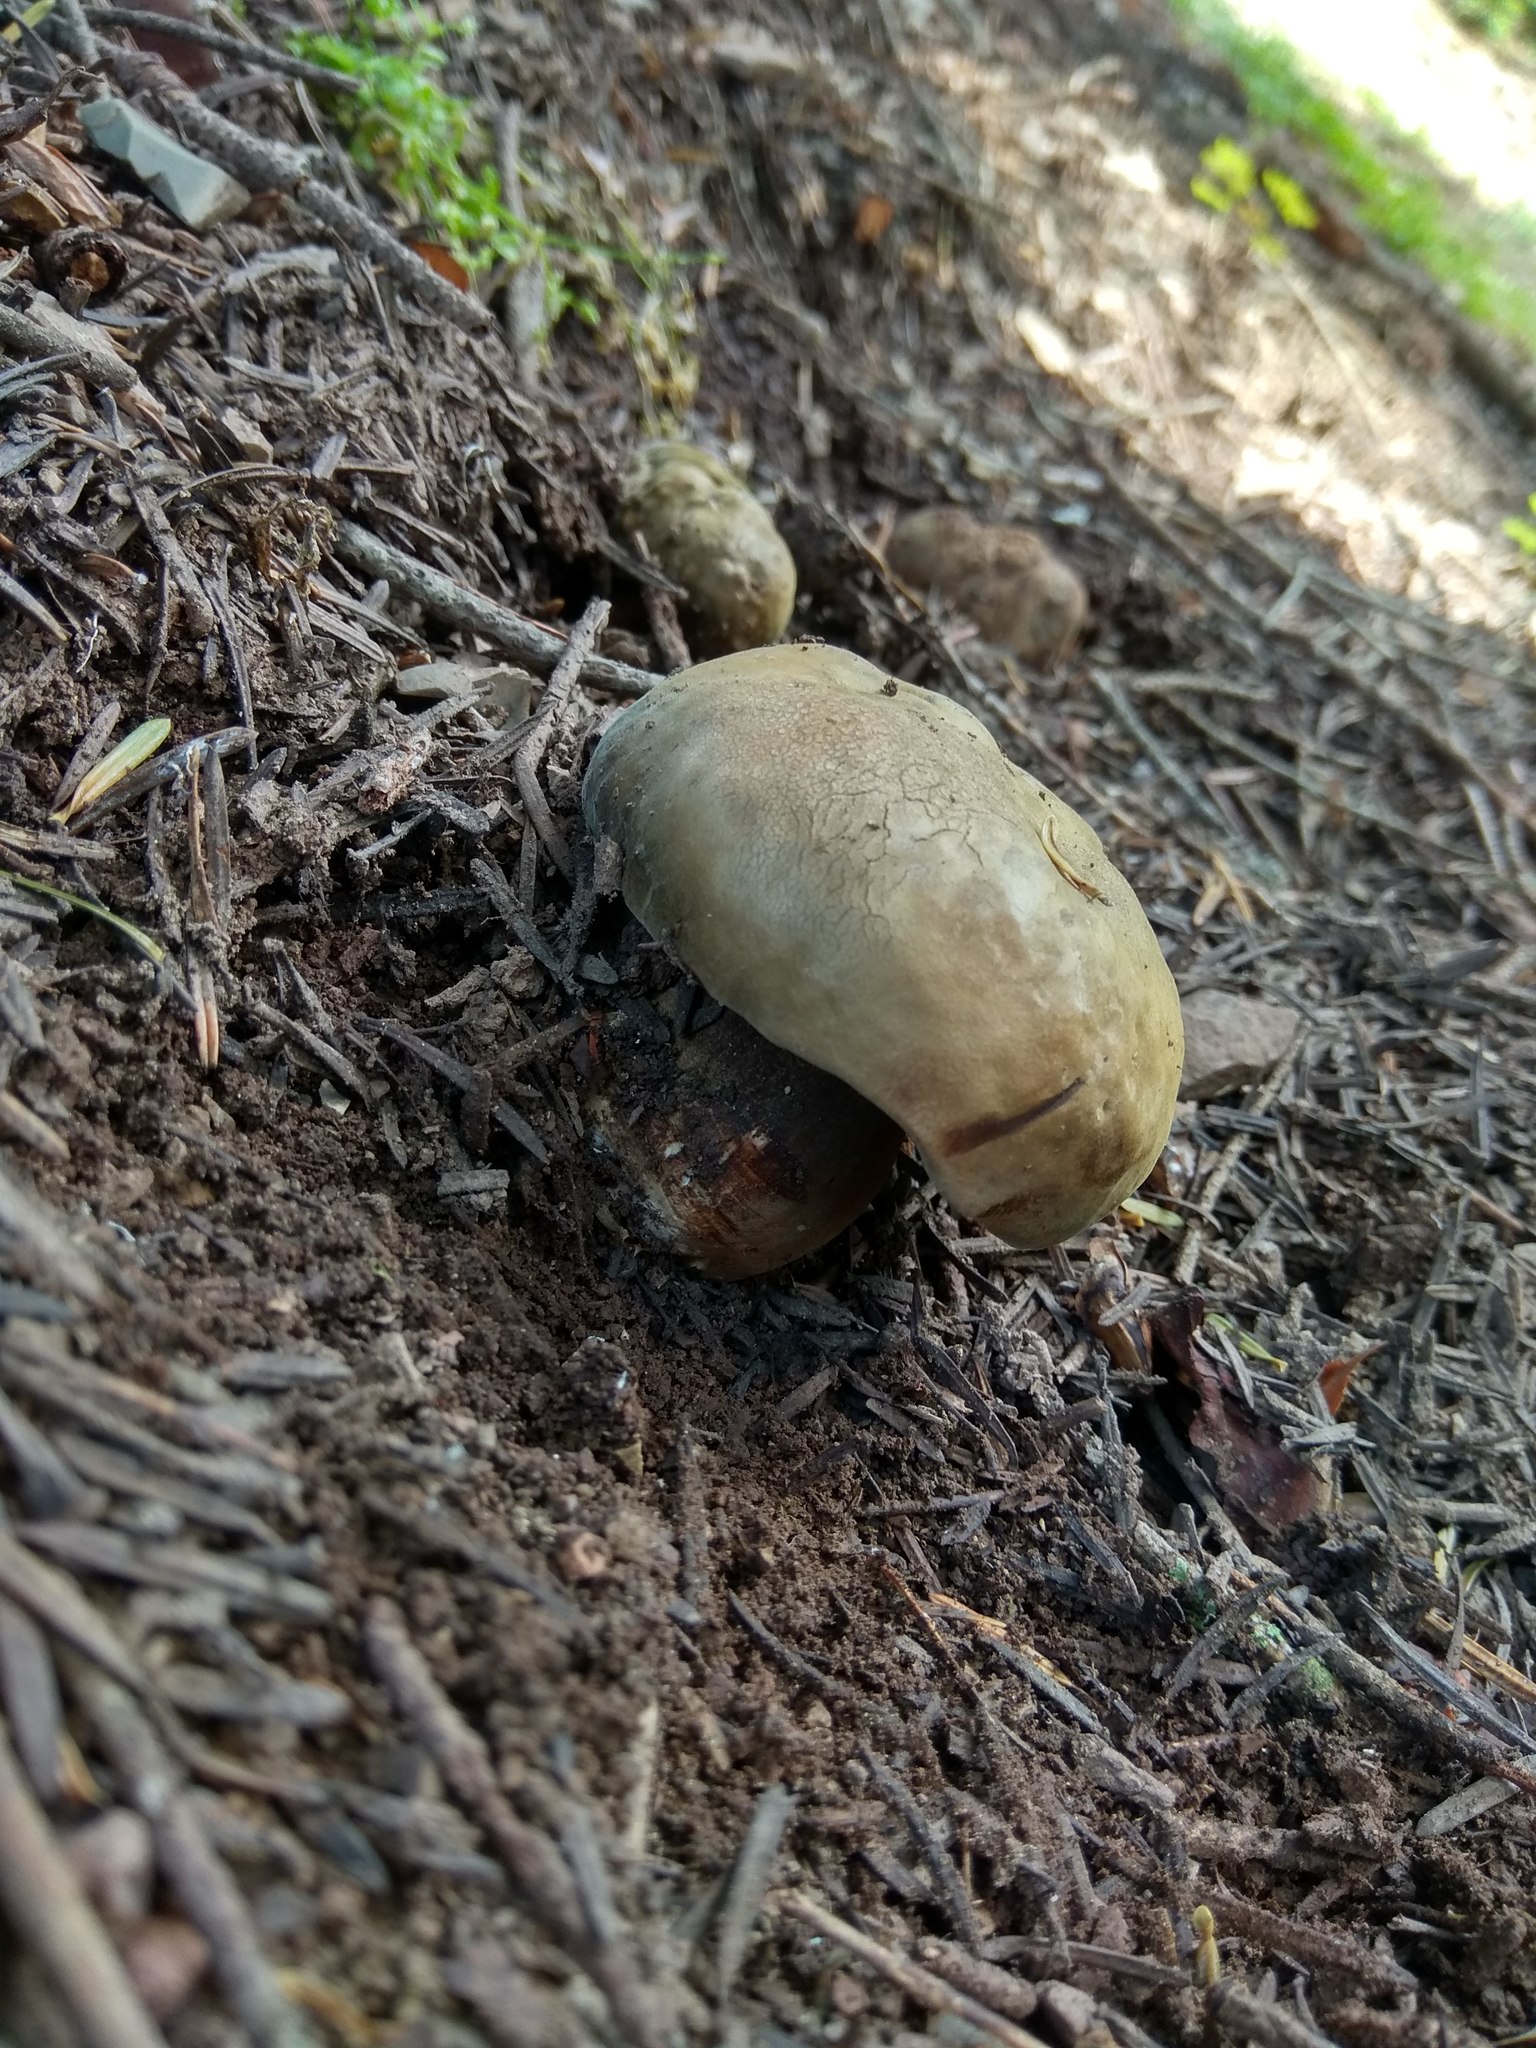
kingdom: Fungi
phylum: Basidiomycota
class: Agaricomycetes
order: Boletales
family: Boletaceae
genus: Porphyrellus
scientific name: Porphyrellus porphyrosporus
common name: Dusky bolete
